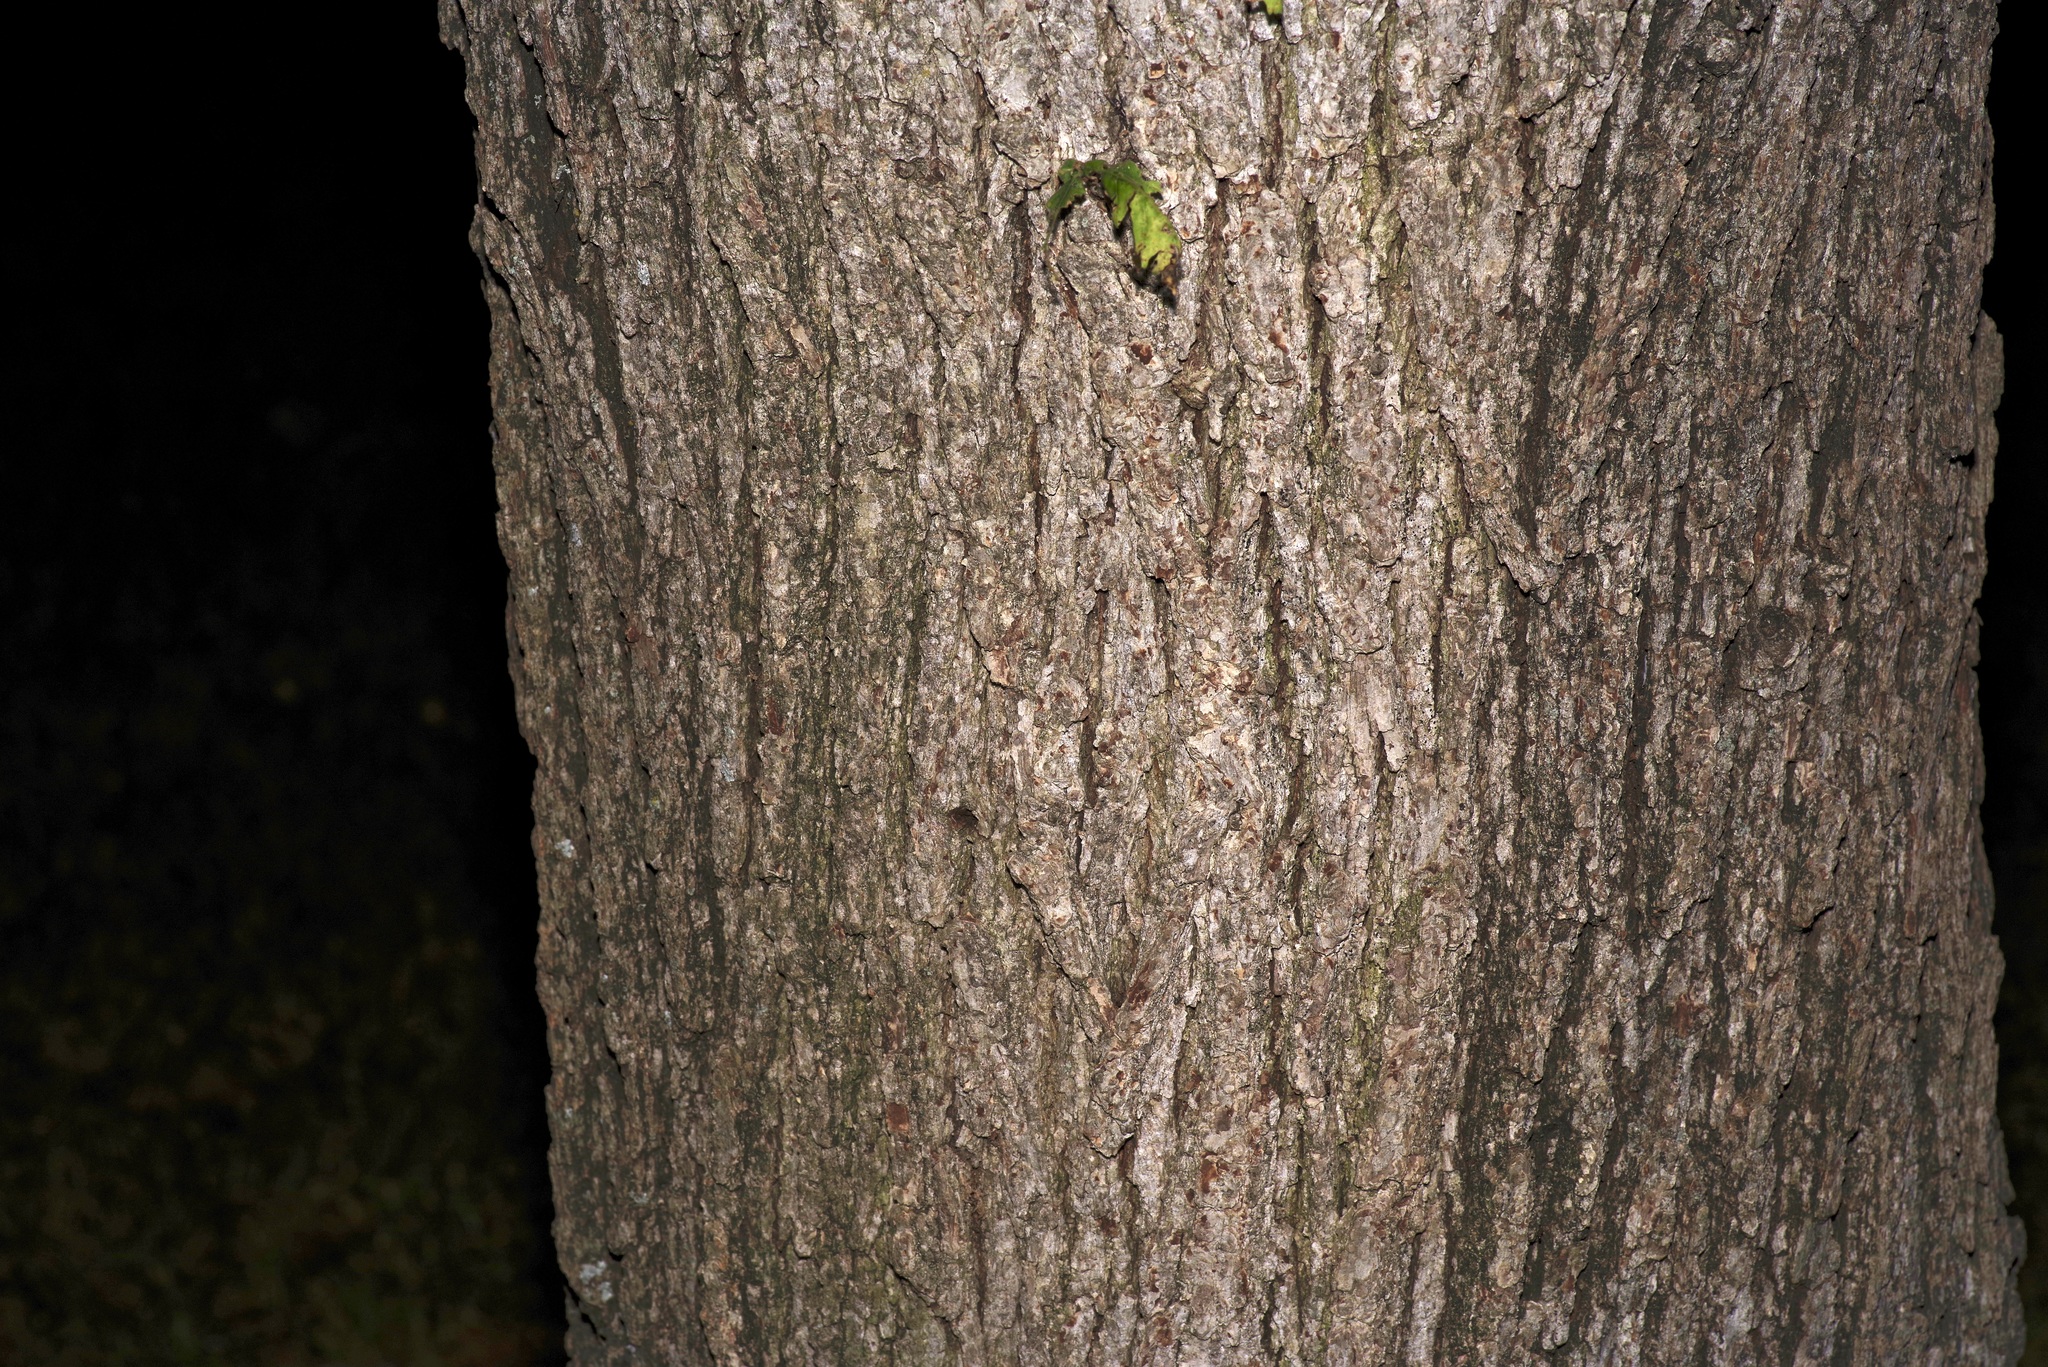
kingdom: Plantae
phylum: Tracheophyta
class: Magnoliopsida
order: Fagales
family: Fagaceae
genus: Quercus
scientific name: Quercus macrocarpa
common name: Bur oak
